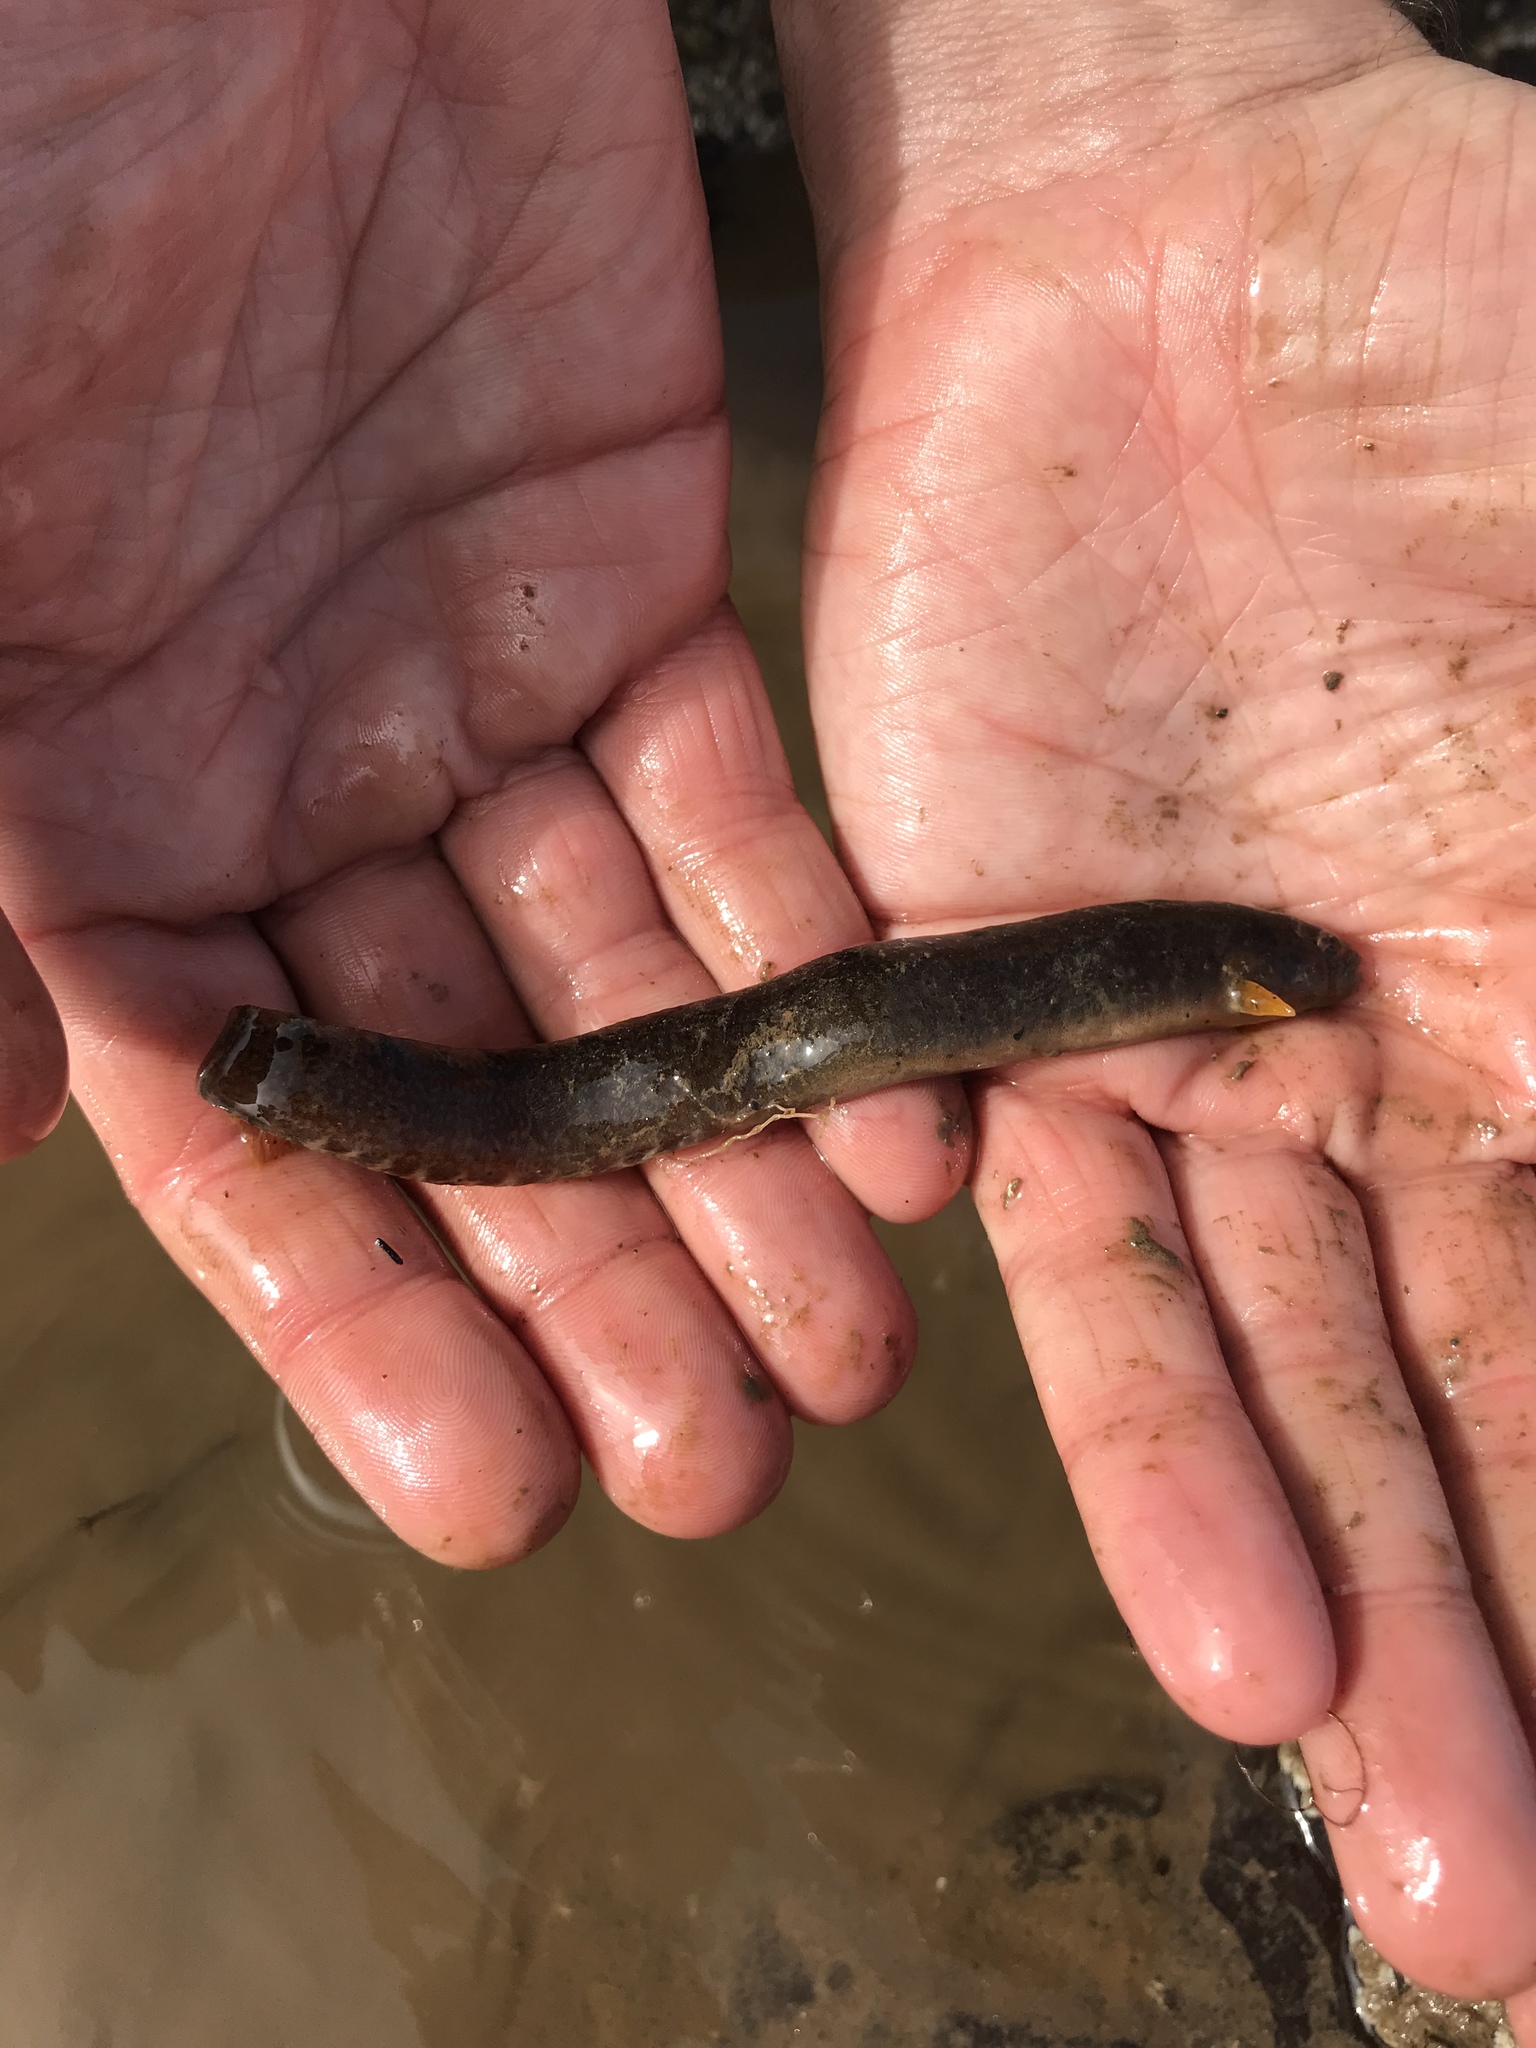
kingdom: Animalia
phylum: Chordata
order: Perciformes
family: Pholidae
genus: Pholis
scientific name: Pholis gunnellus
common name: Butterfish
